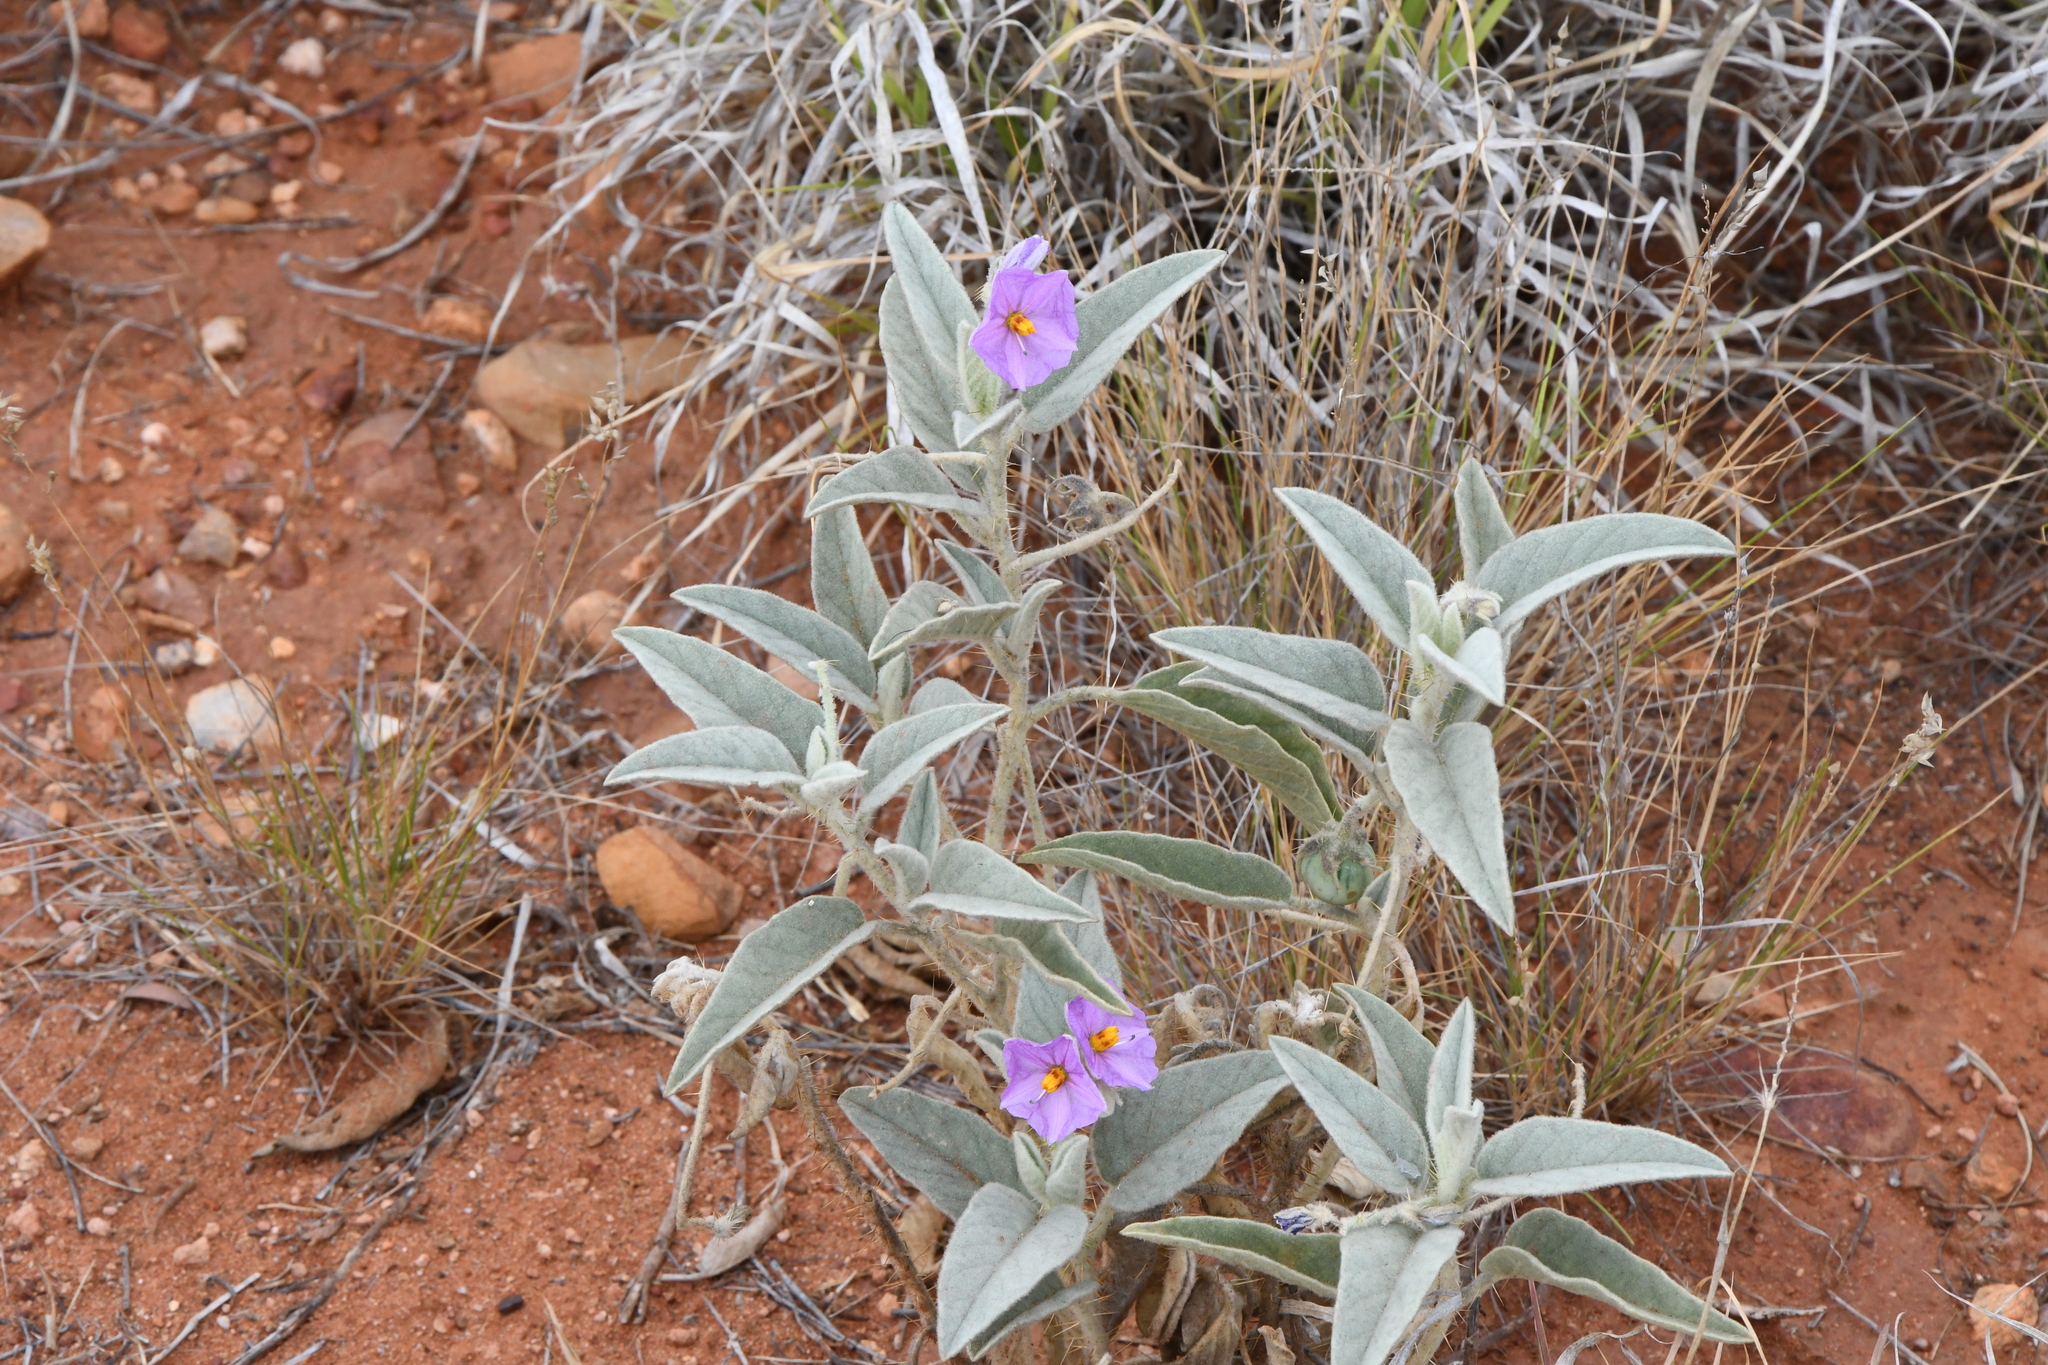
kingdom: Plantae
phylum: Tracheophyta
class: Magnoliopsida
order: Solanales
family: Solanaceae
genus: Solanum
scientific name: Solanum ellipticum
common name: Potato-bush
